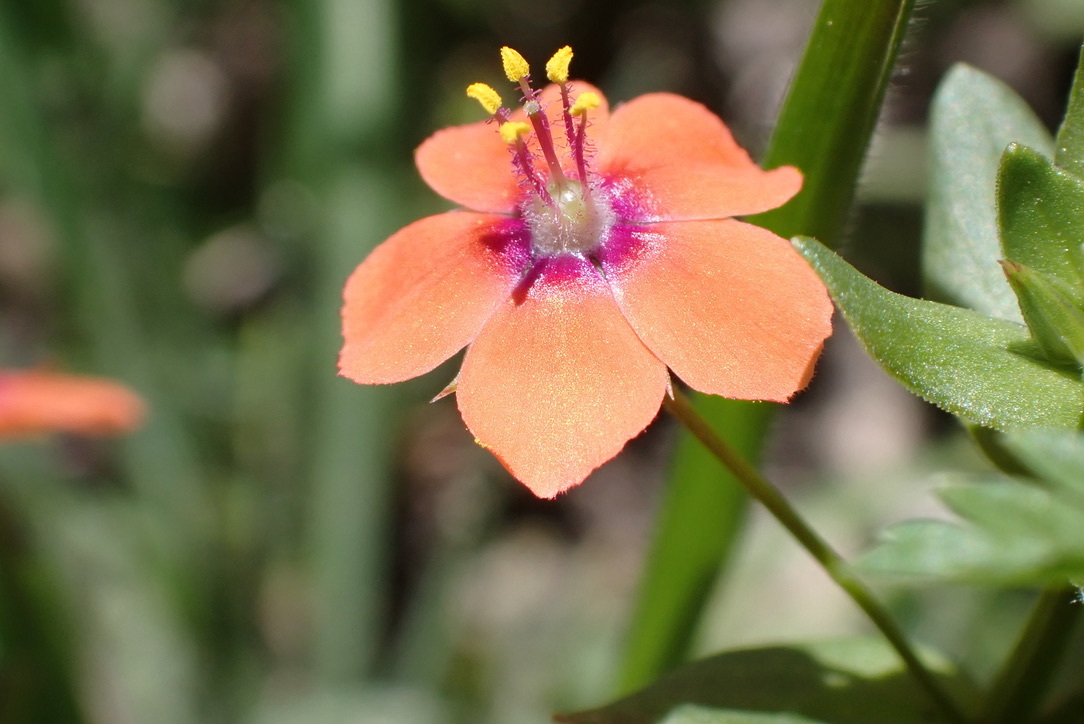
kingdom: Plantae
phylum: Tracheophyta
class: Magnoliopsida
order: Ericales
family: Primulaceae
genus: Lysimachia
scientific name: Lysimachia arvensis
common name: Scarlet pimpernel
